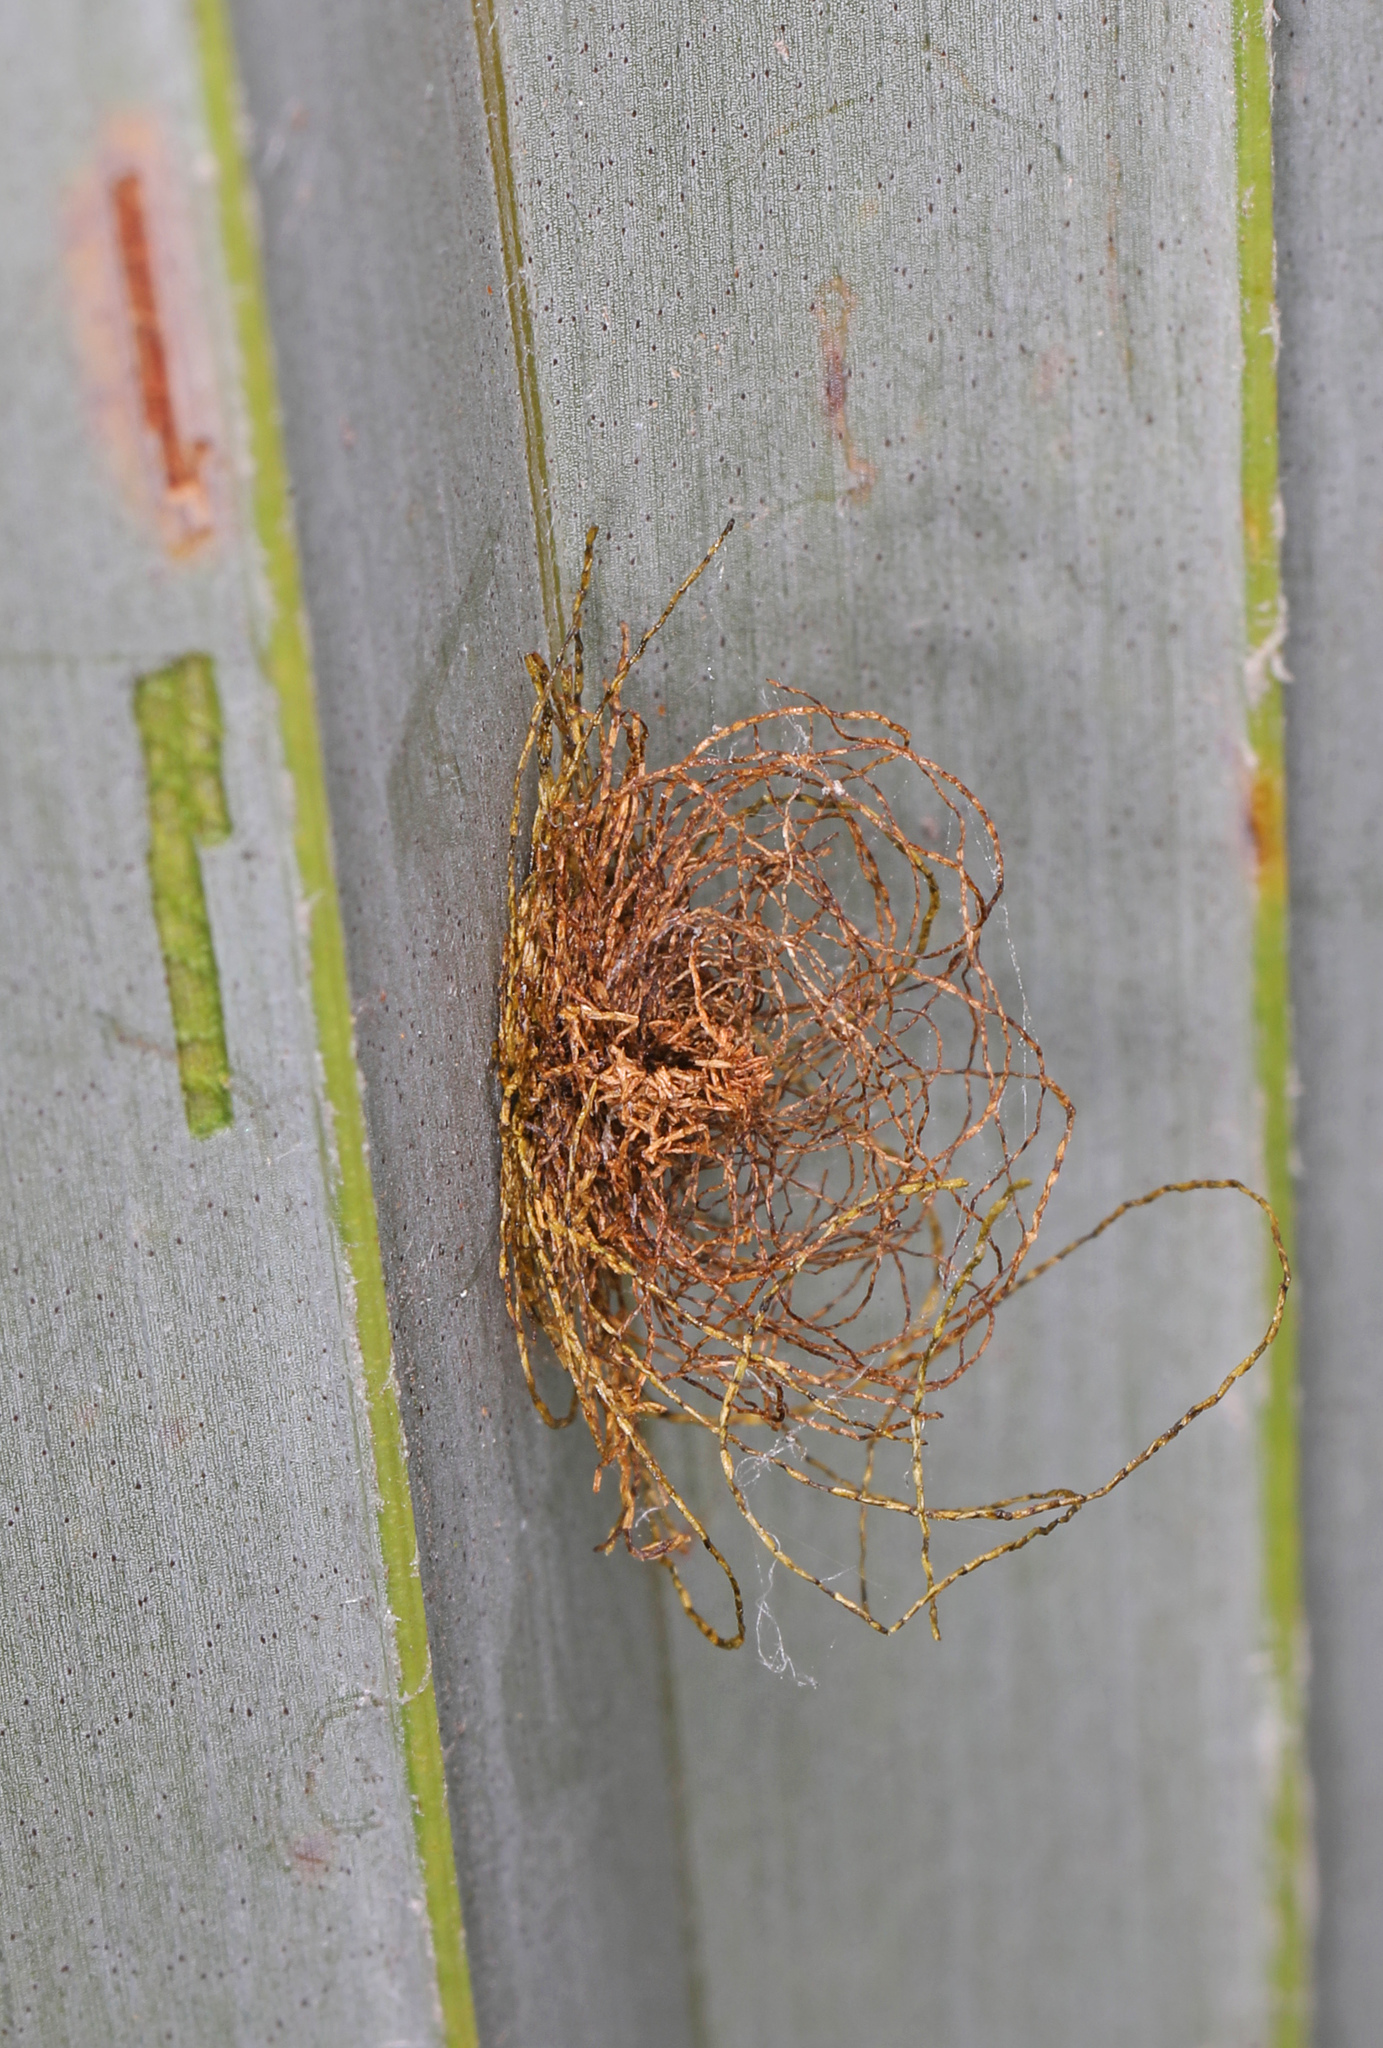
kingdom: Animalia
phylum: Arthropoda
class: Insecta
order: Coleoptera
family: Chrysomelidae
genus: Hemisphaerota
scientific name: Hemisphaerota cyanea
